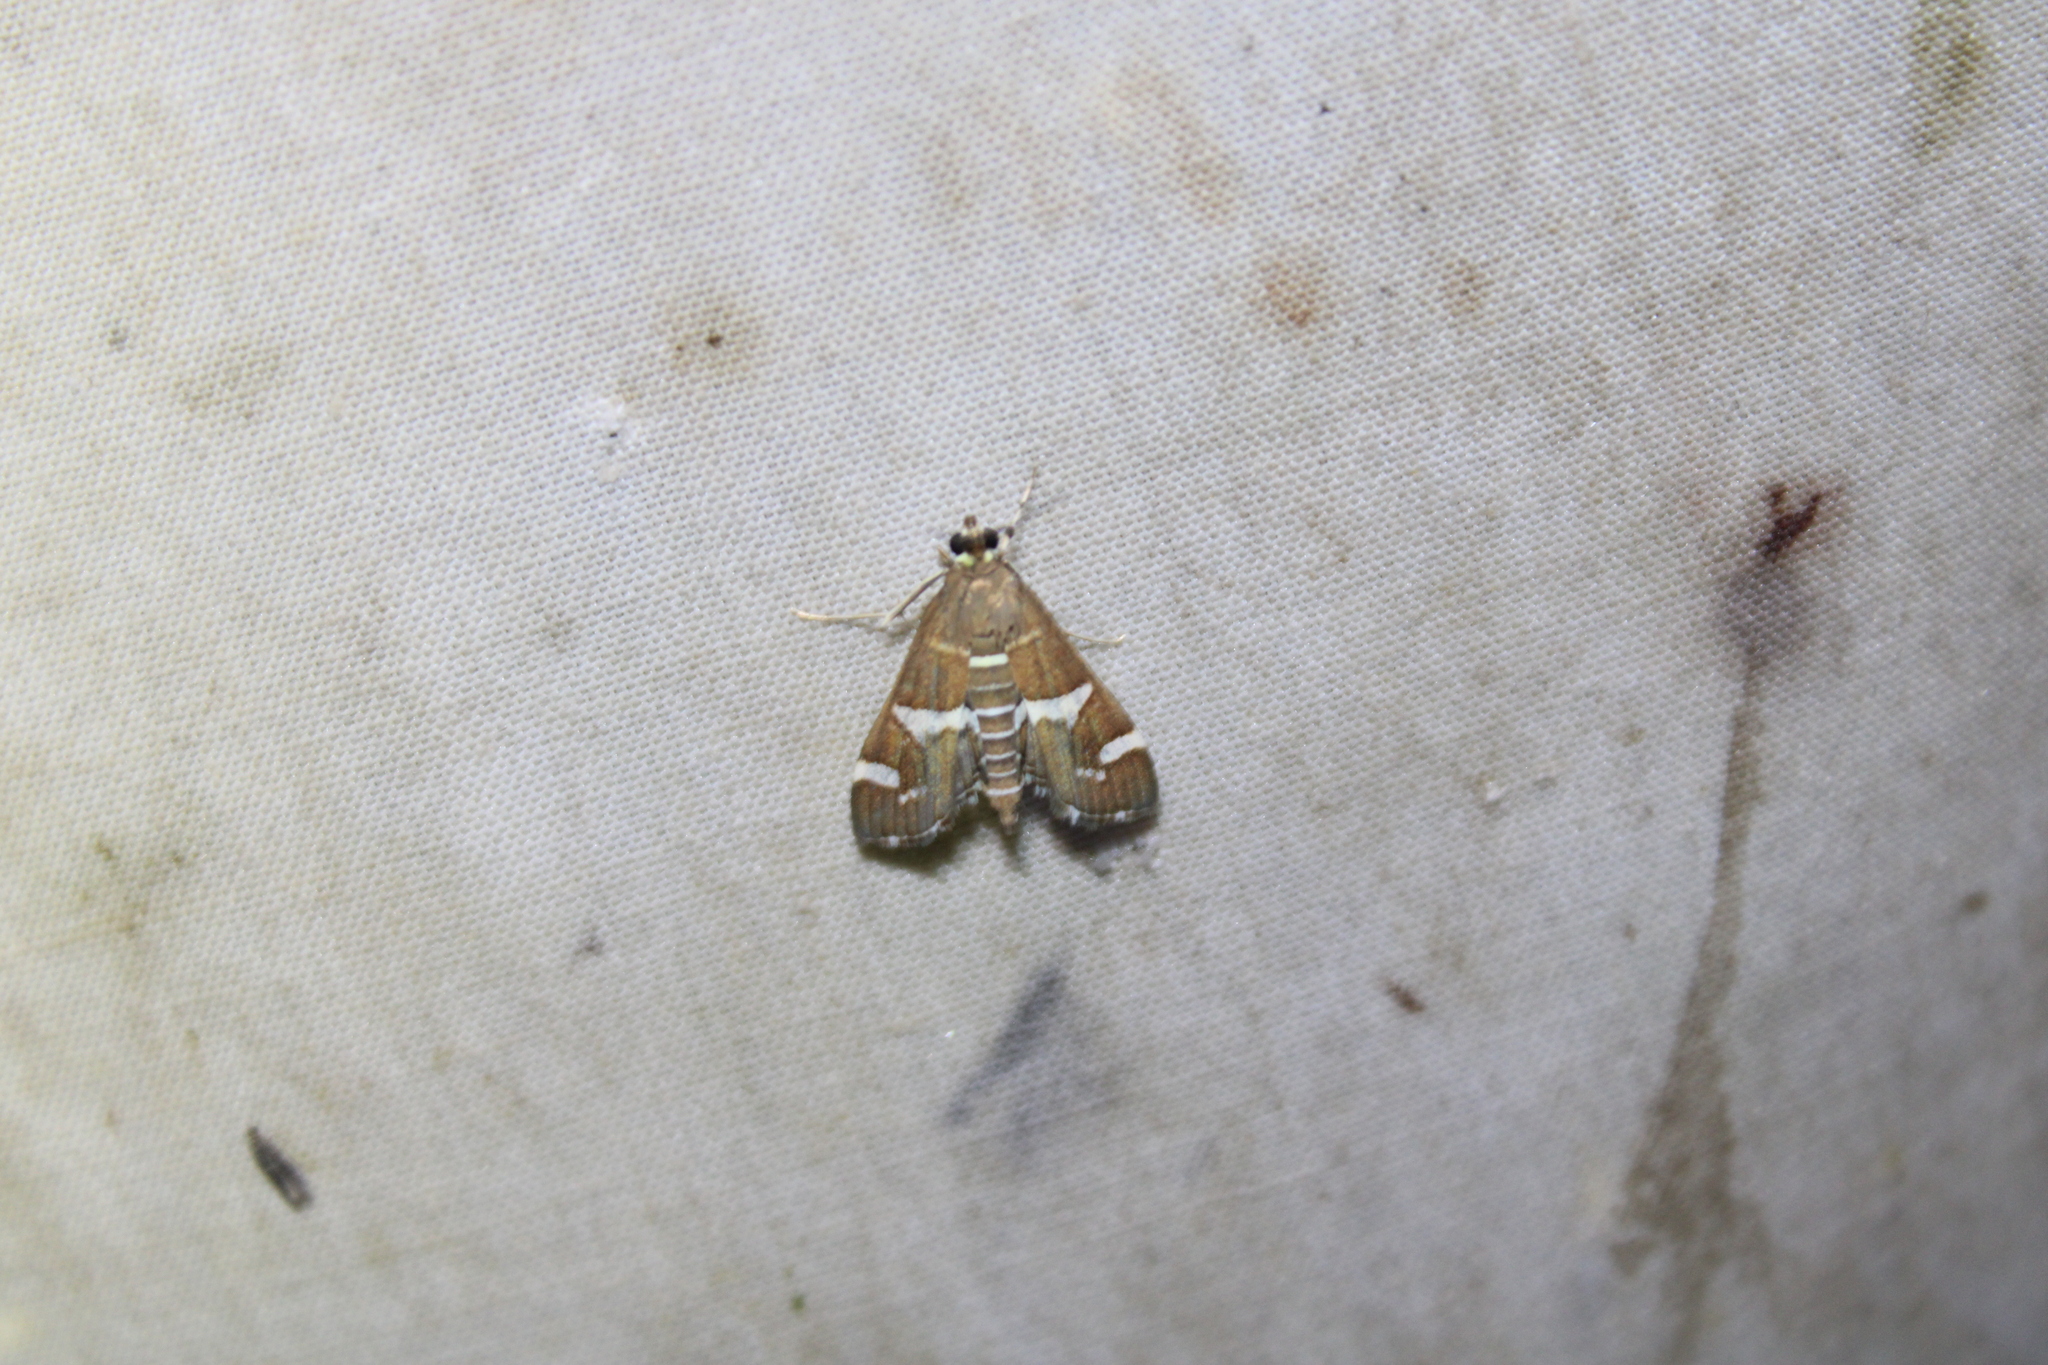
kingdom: Animalia
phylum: Arthropoda
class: Insecta
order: Lepidoptera
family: Crambidae
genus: Spoladea
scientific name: Spoladea recurvalis
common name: Beet webworm moth
